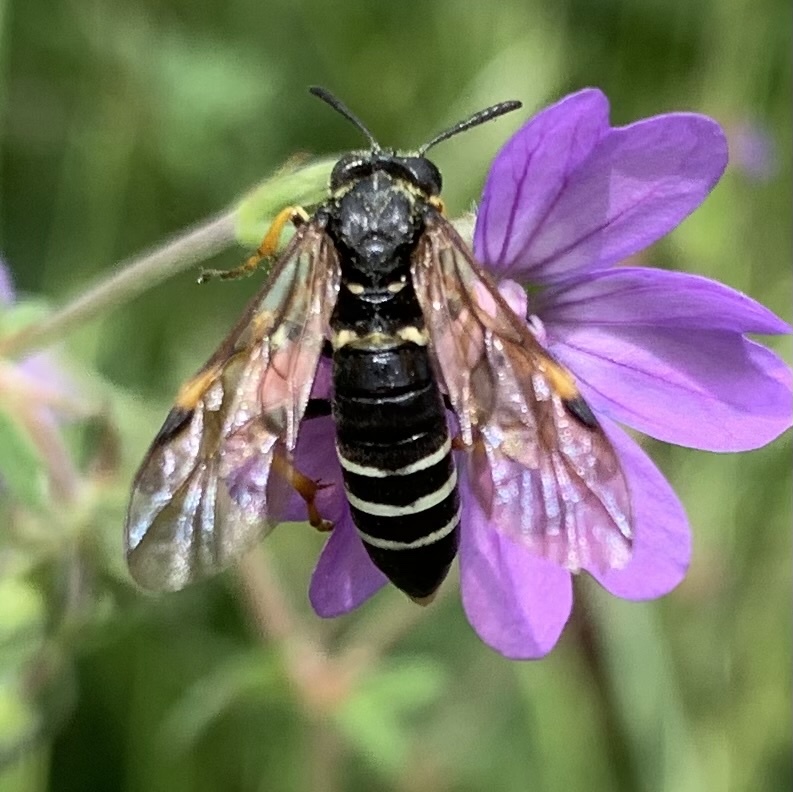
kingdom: Animalia
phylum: Arthropoda
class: Insecta
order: Hymenoptera
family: Tenthredinidae
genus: Tenthredo
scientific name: Tenthredo koehleri
